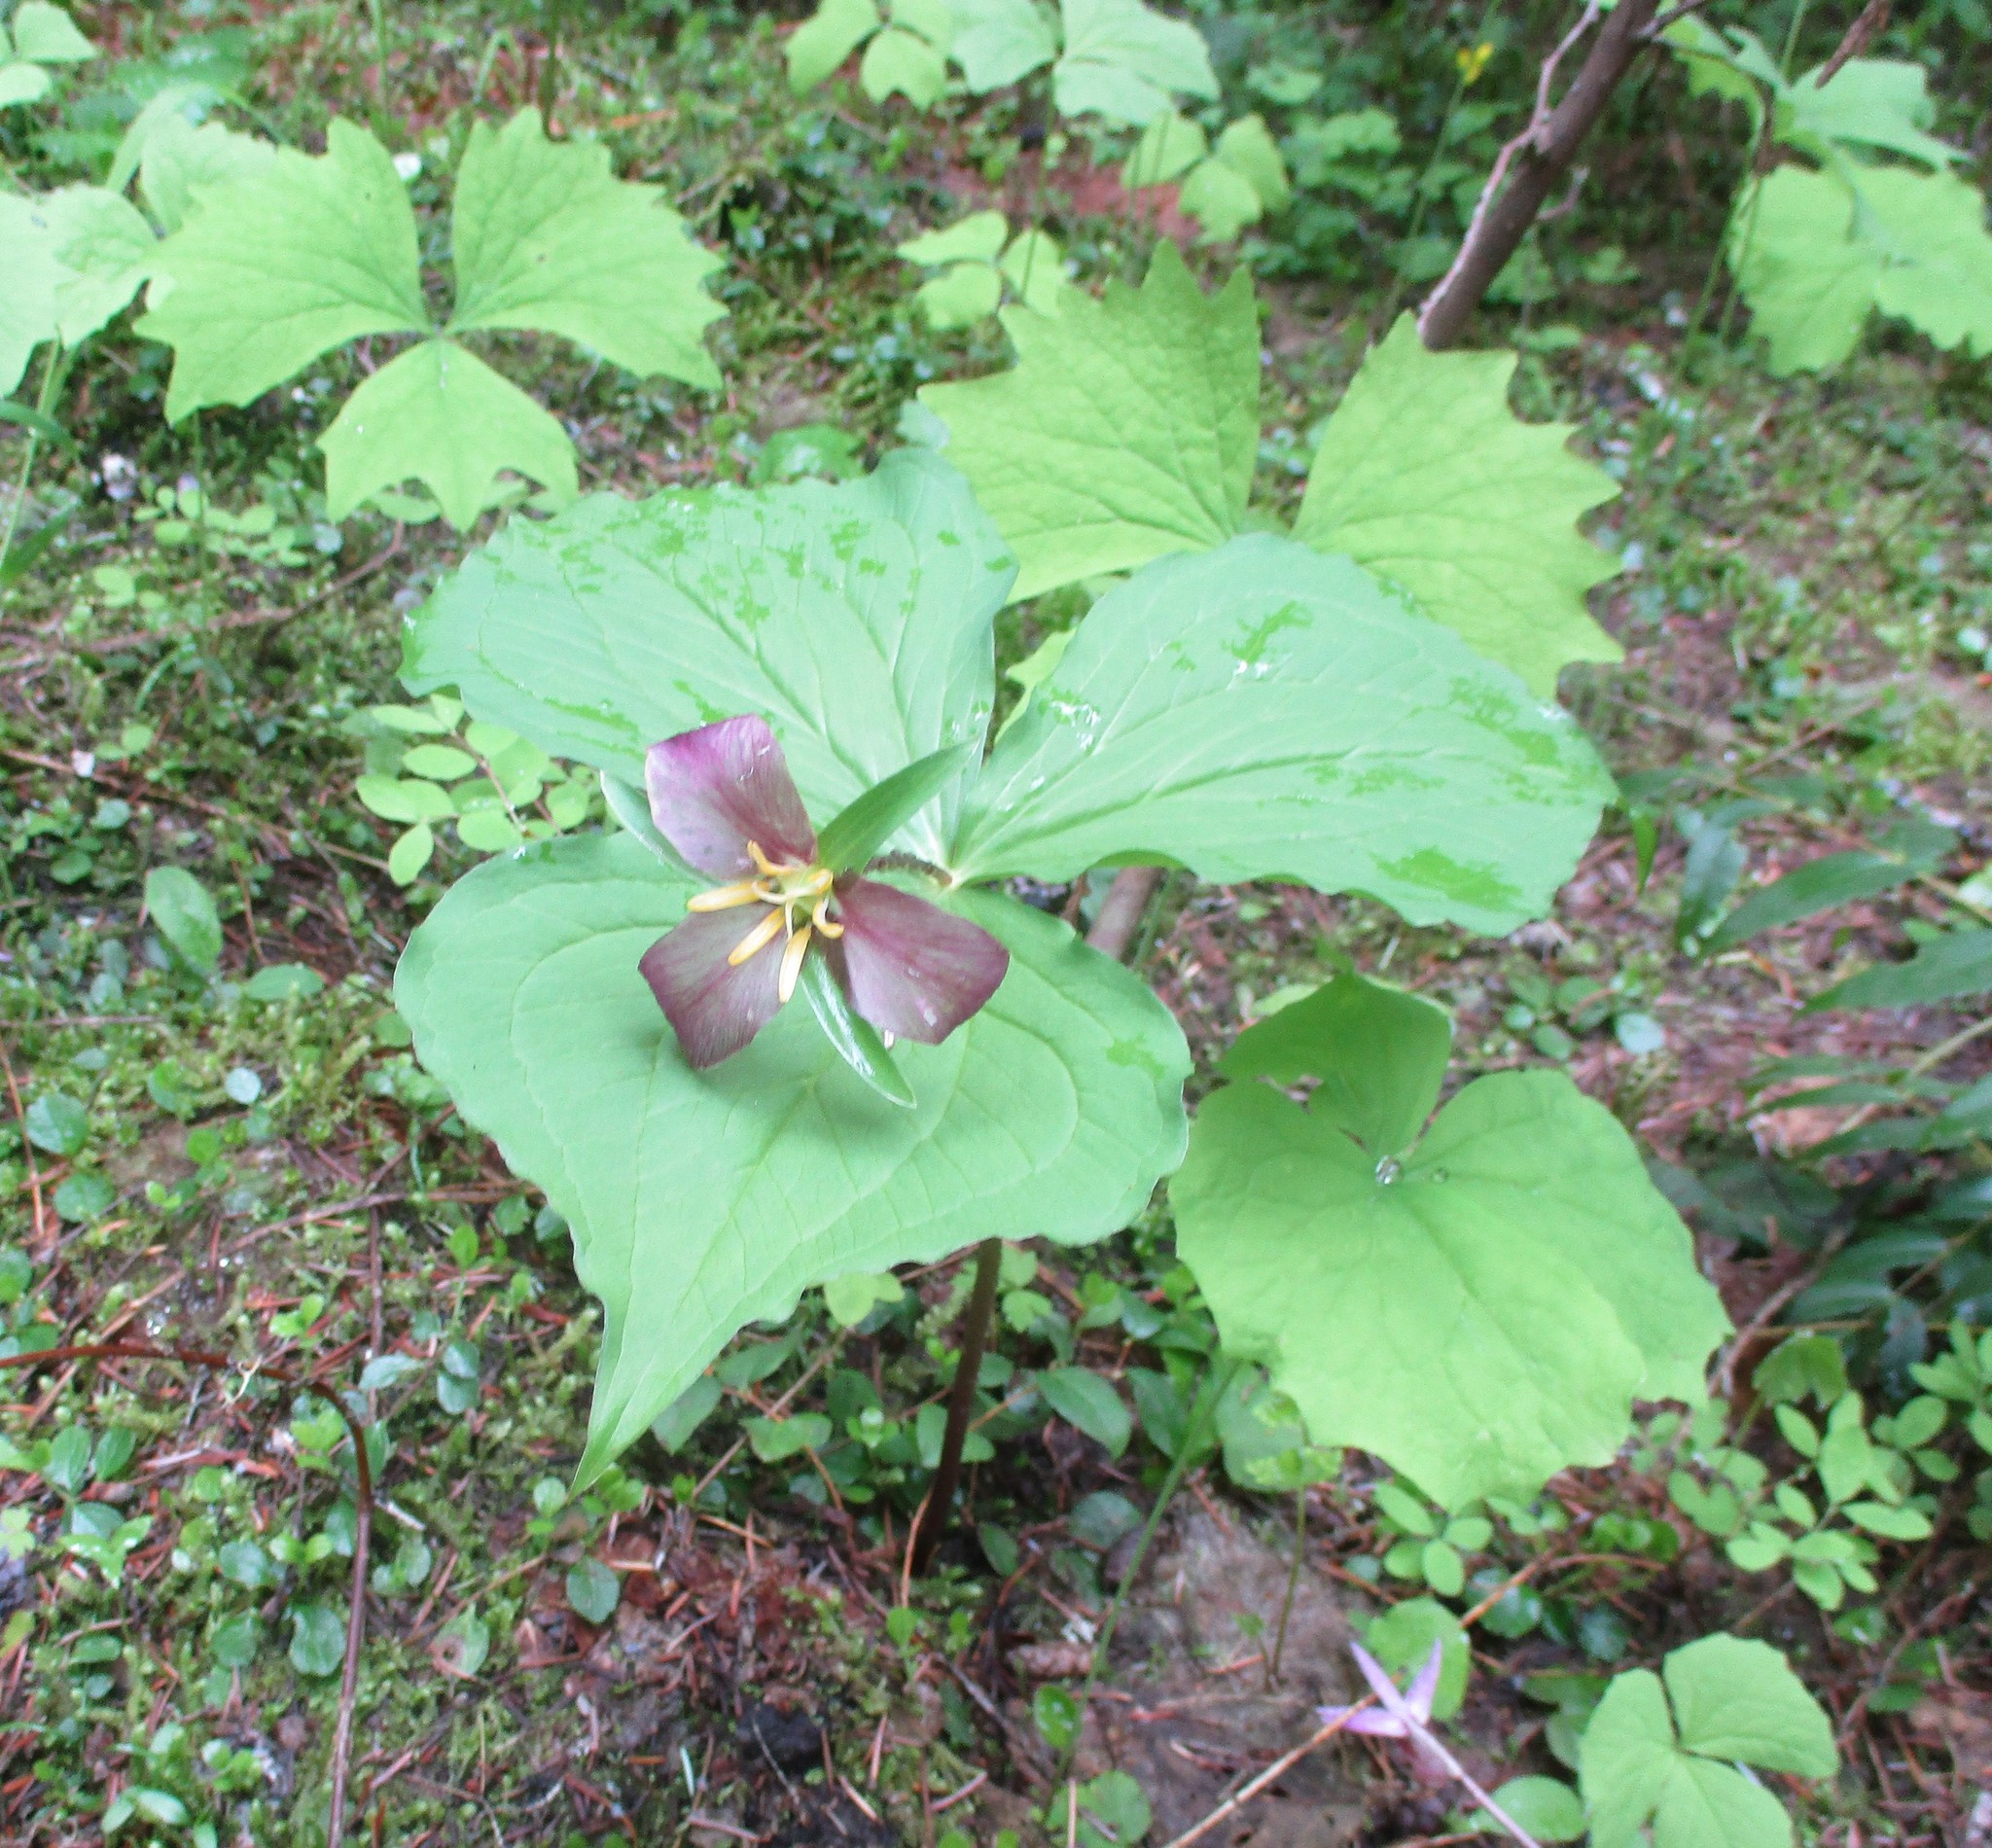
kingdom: Plantae
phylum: Tracheophyta
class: Liliopsida
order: Liliales
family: Melanthiaceae
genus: Trillium
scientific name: Trillium ovatum
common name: Pacific trillium
